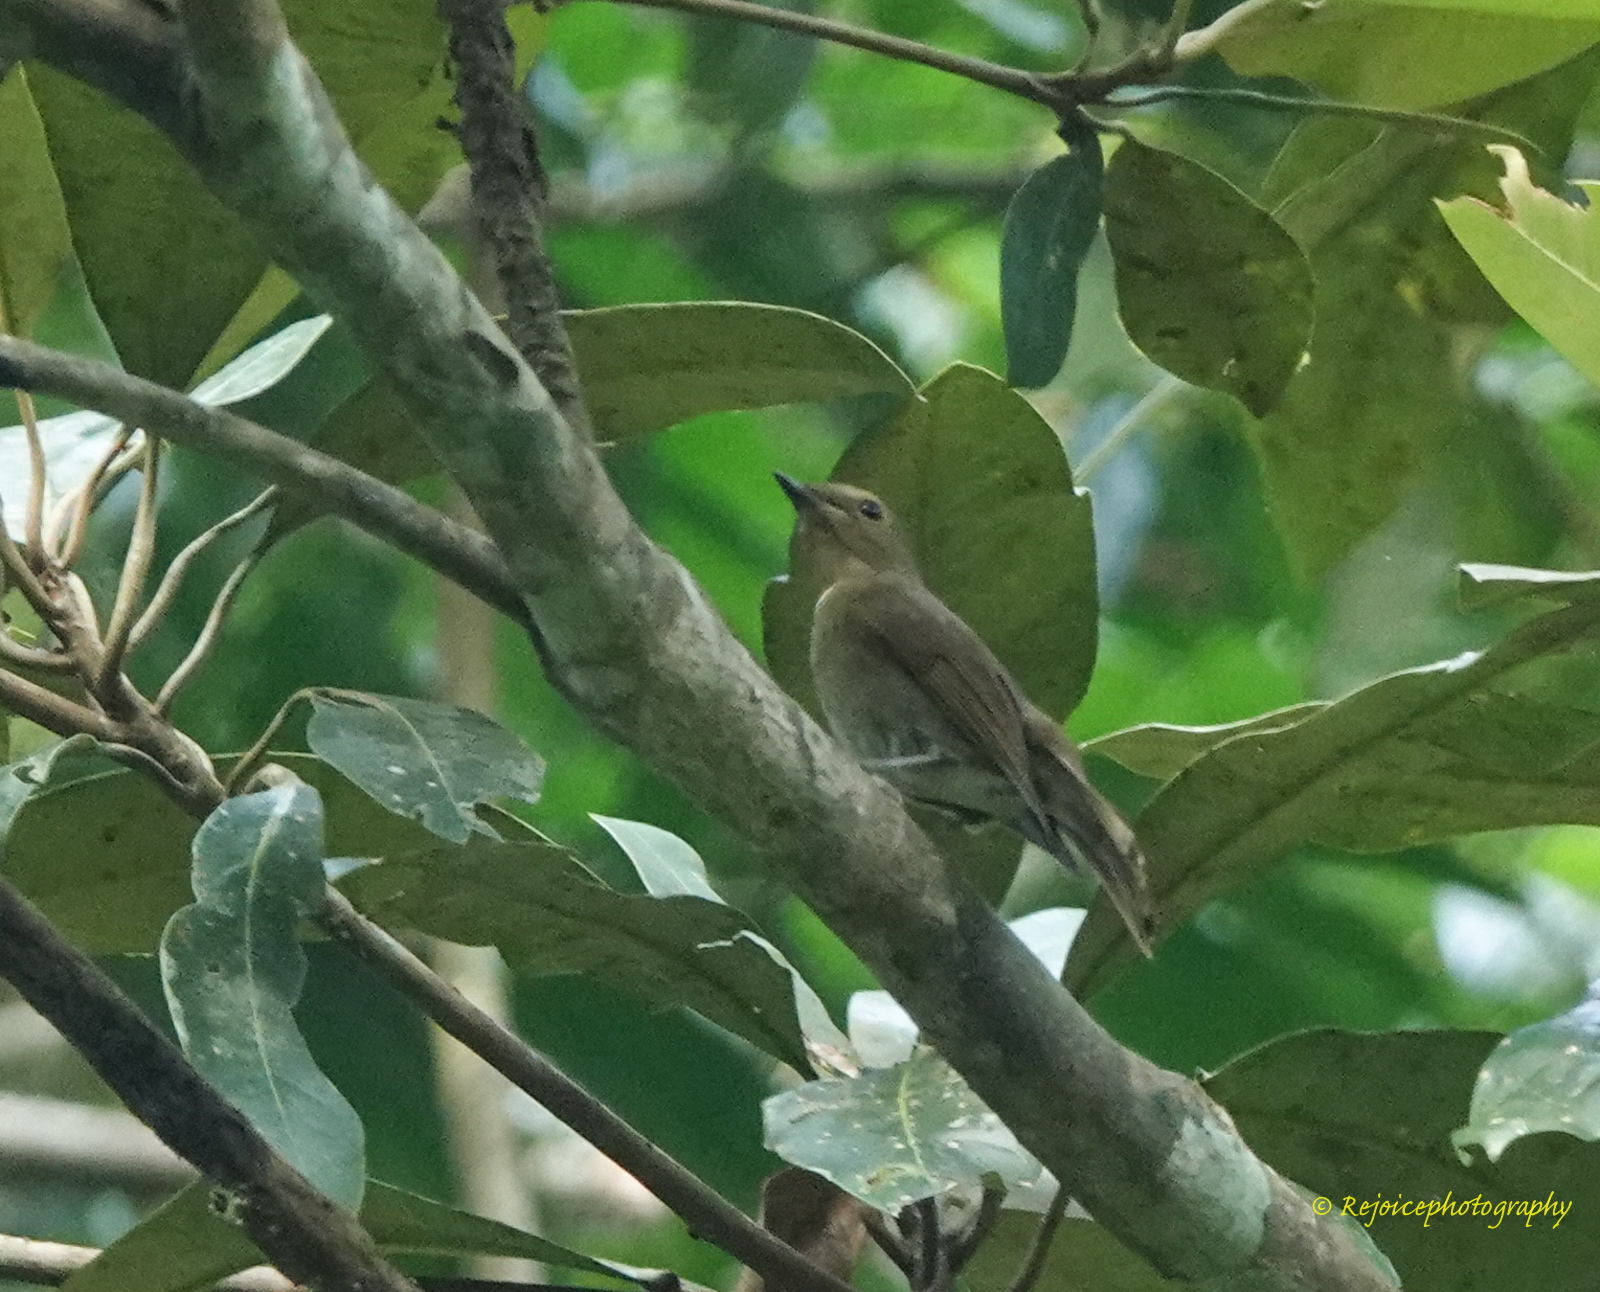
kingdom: Animalia
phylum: Chordata
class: Aves
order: Passeriformes
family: Muscicapidae
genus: Cyornis
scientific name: Cyornis unicolor
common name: Pale blue flycatcher
